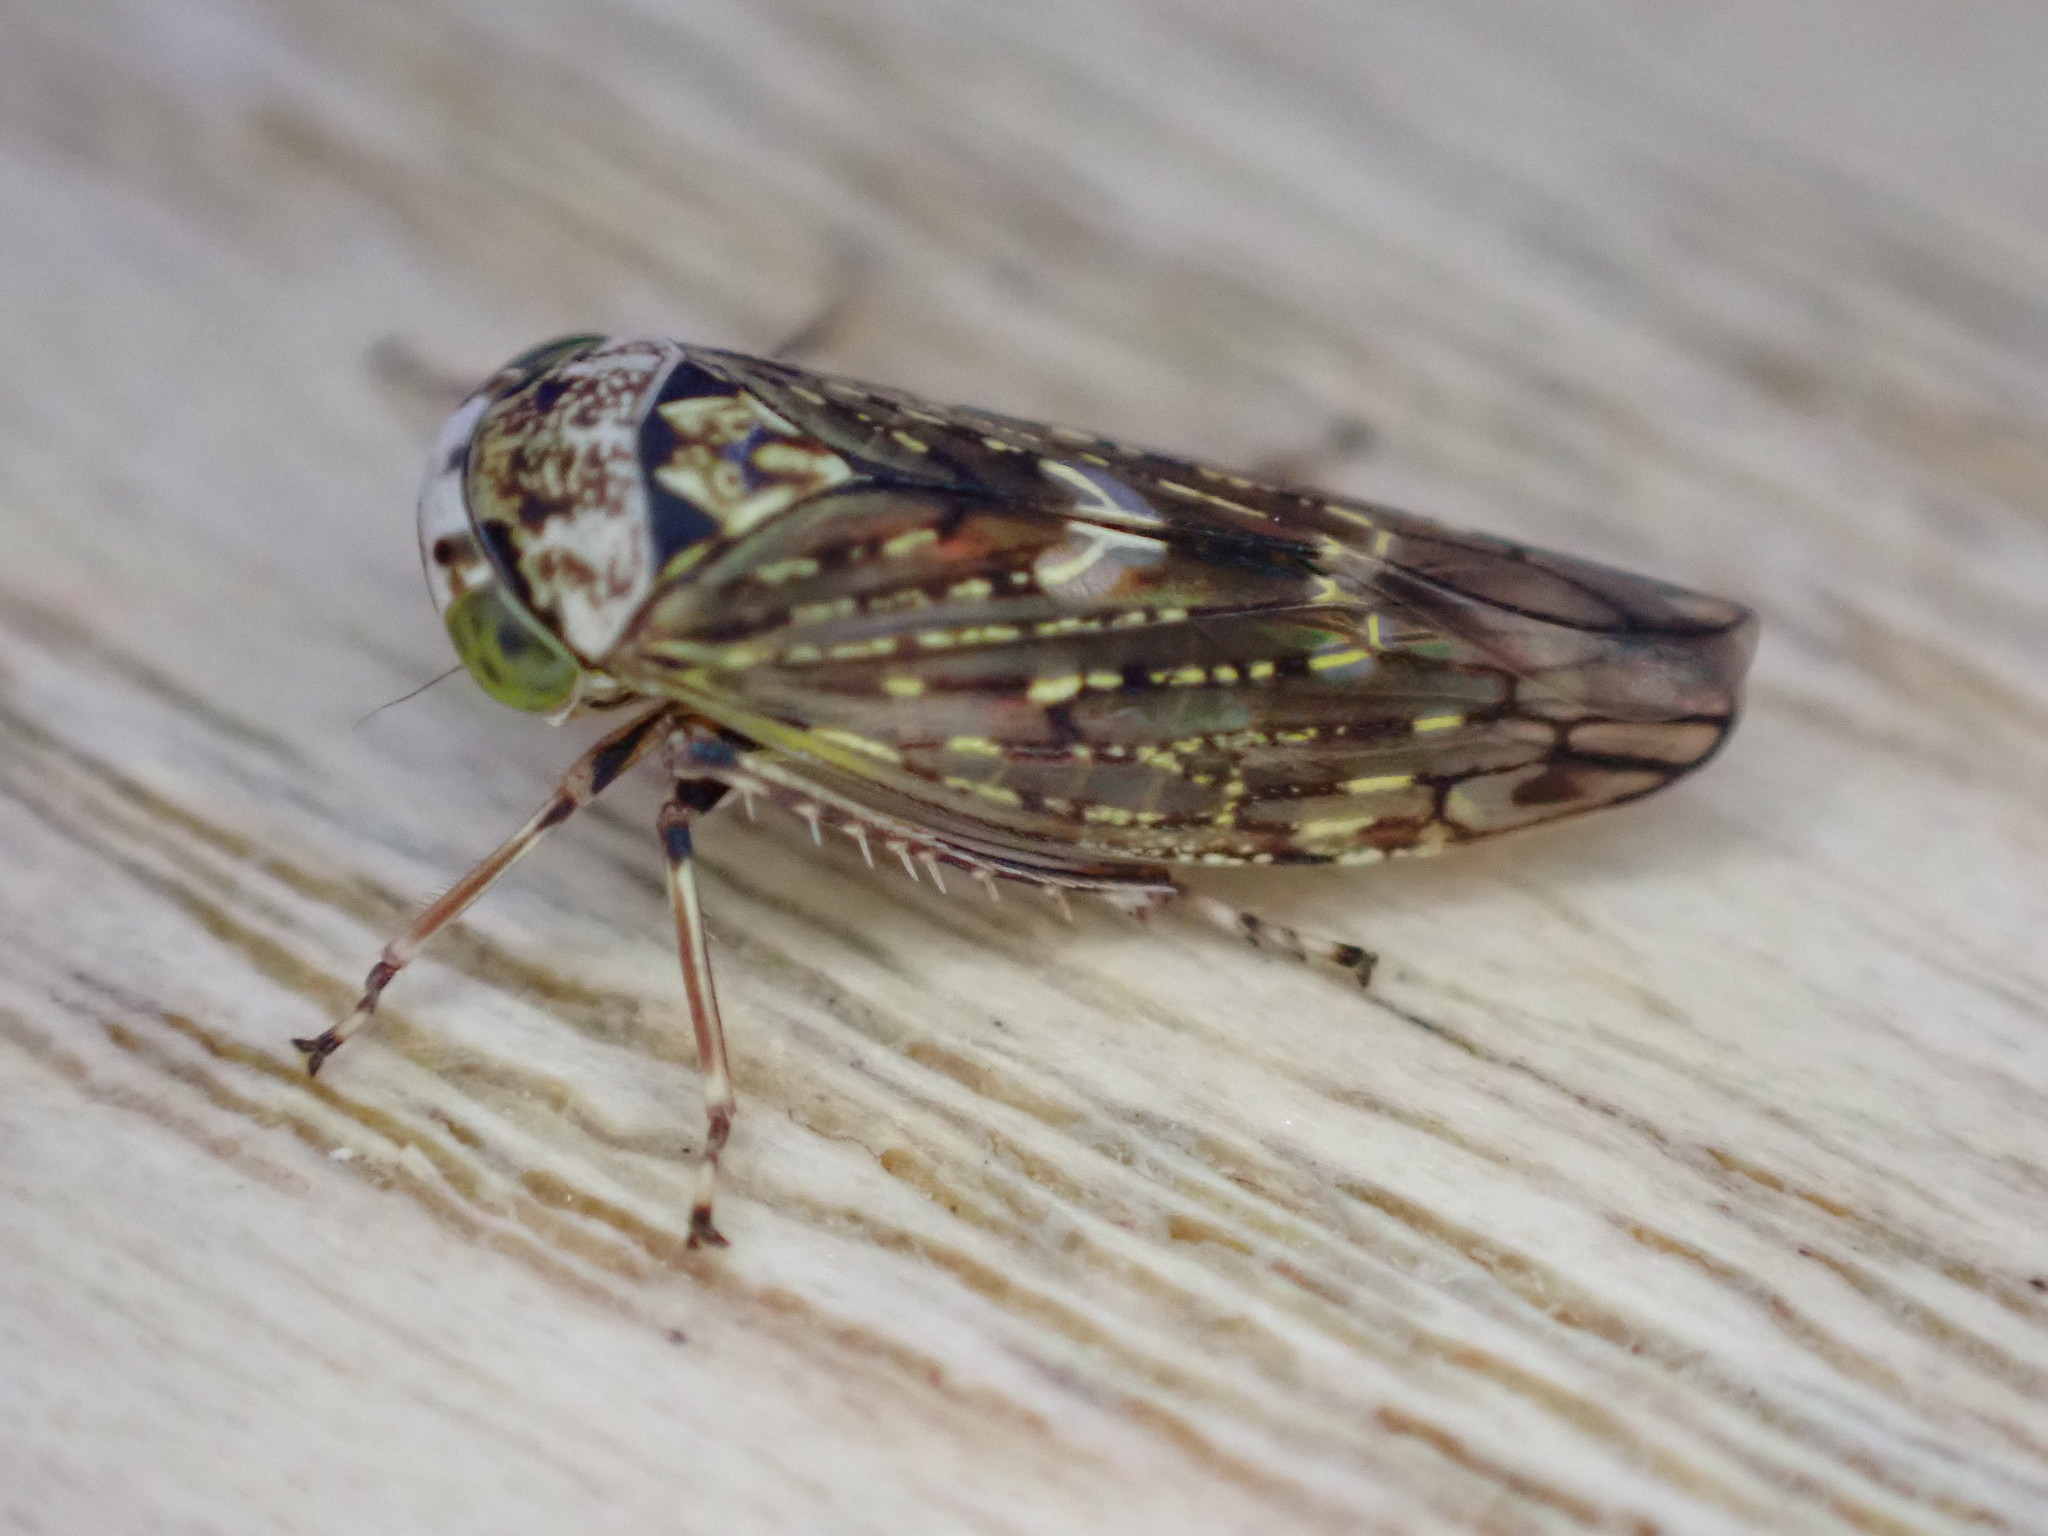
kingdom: Animalia
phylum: Arthropoda
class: Insecta
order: Hemiptera
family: Cicadellidae
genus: Acericerus
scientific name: Acericerus heydenii
